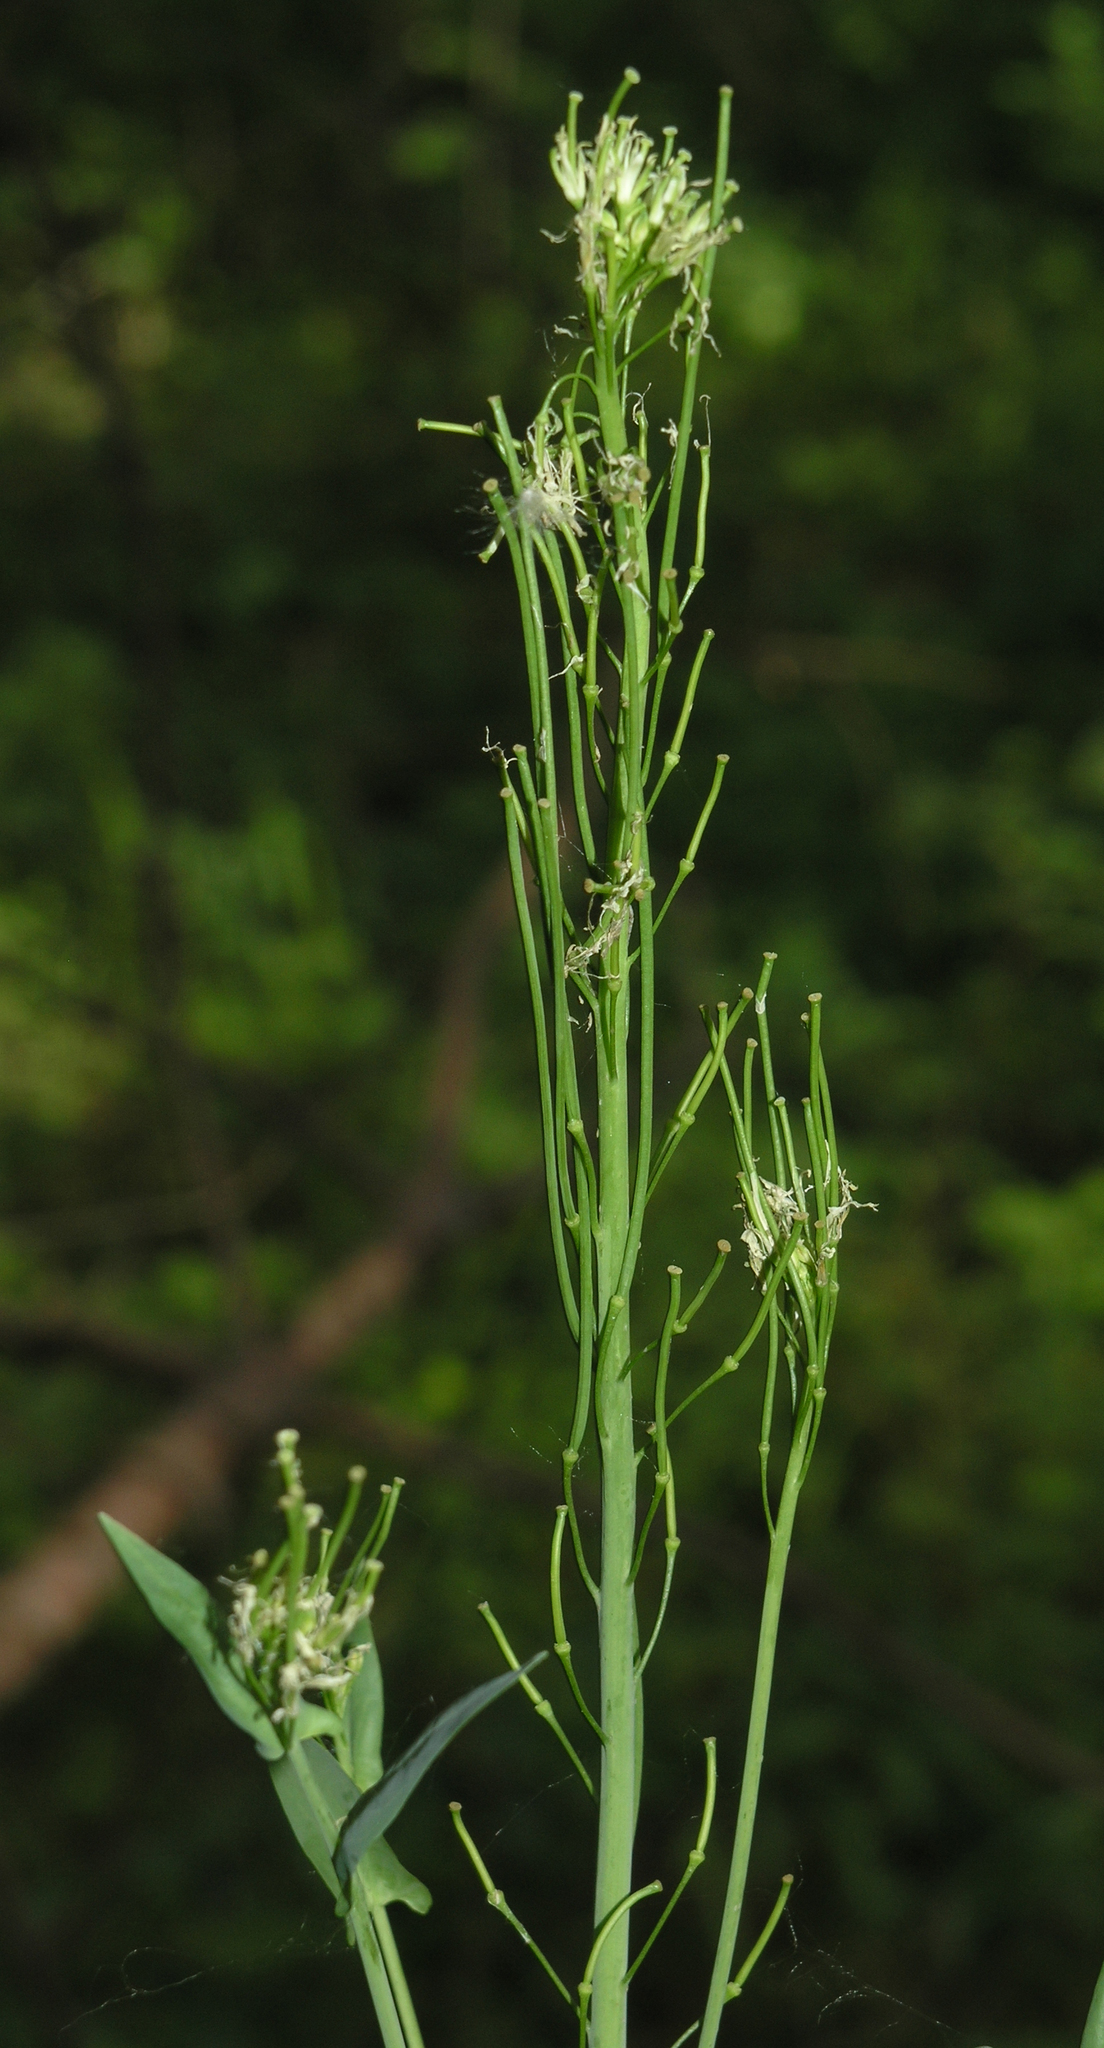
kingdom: Plantae
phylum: Tracheophyta
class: Magnoliopsida
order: Brassicales
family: Brassicaceae
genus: Turritis
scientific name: Turritis glabra
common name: Tower rockcress
